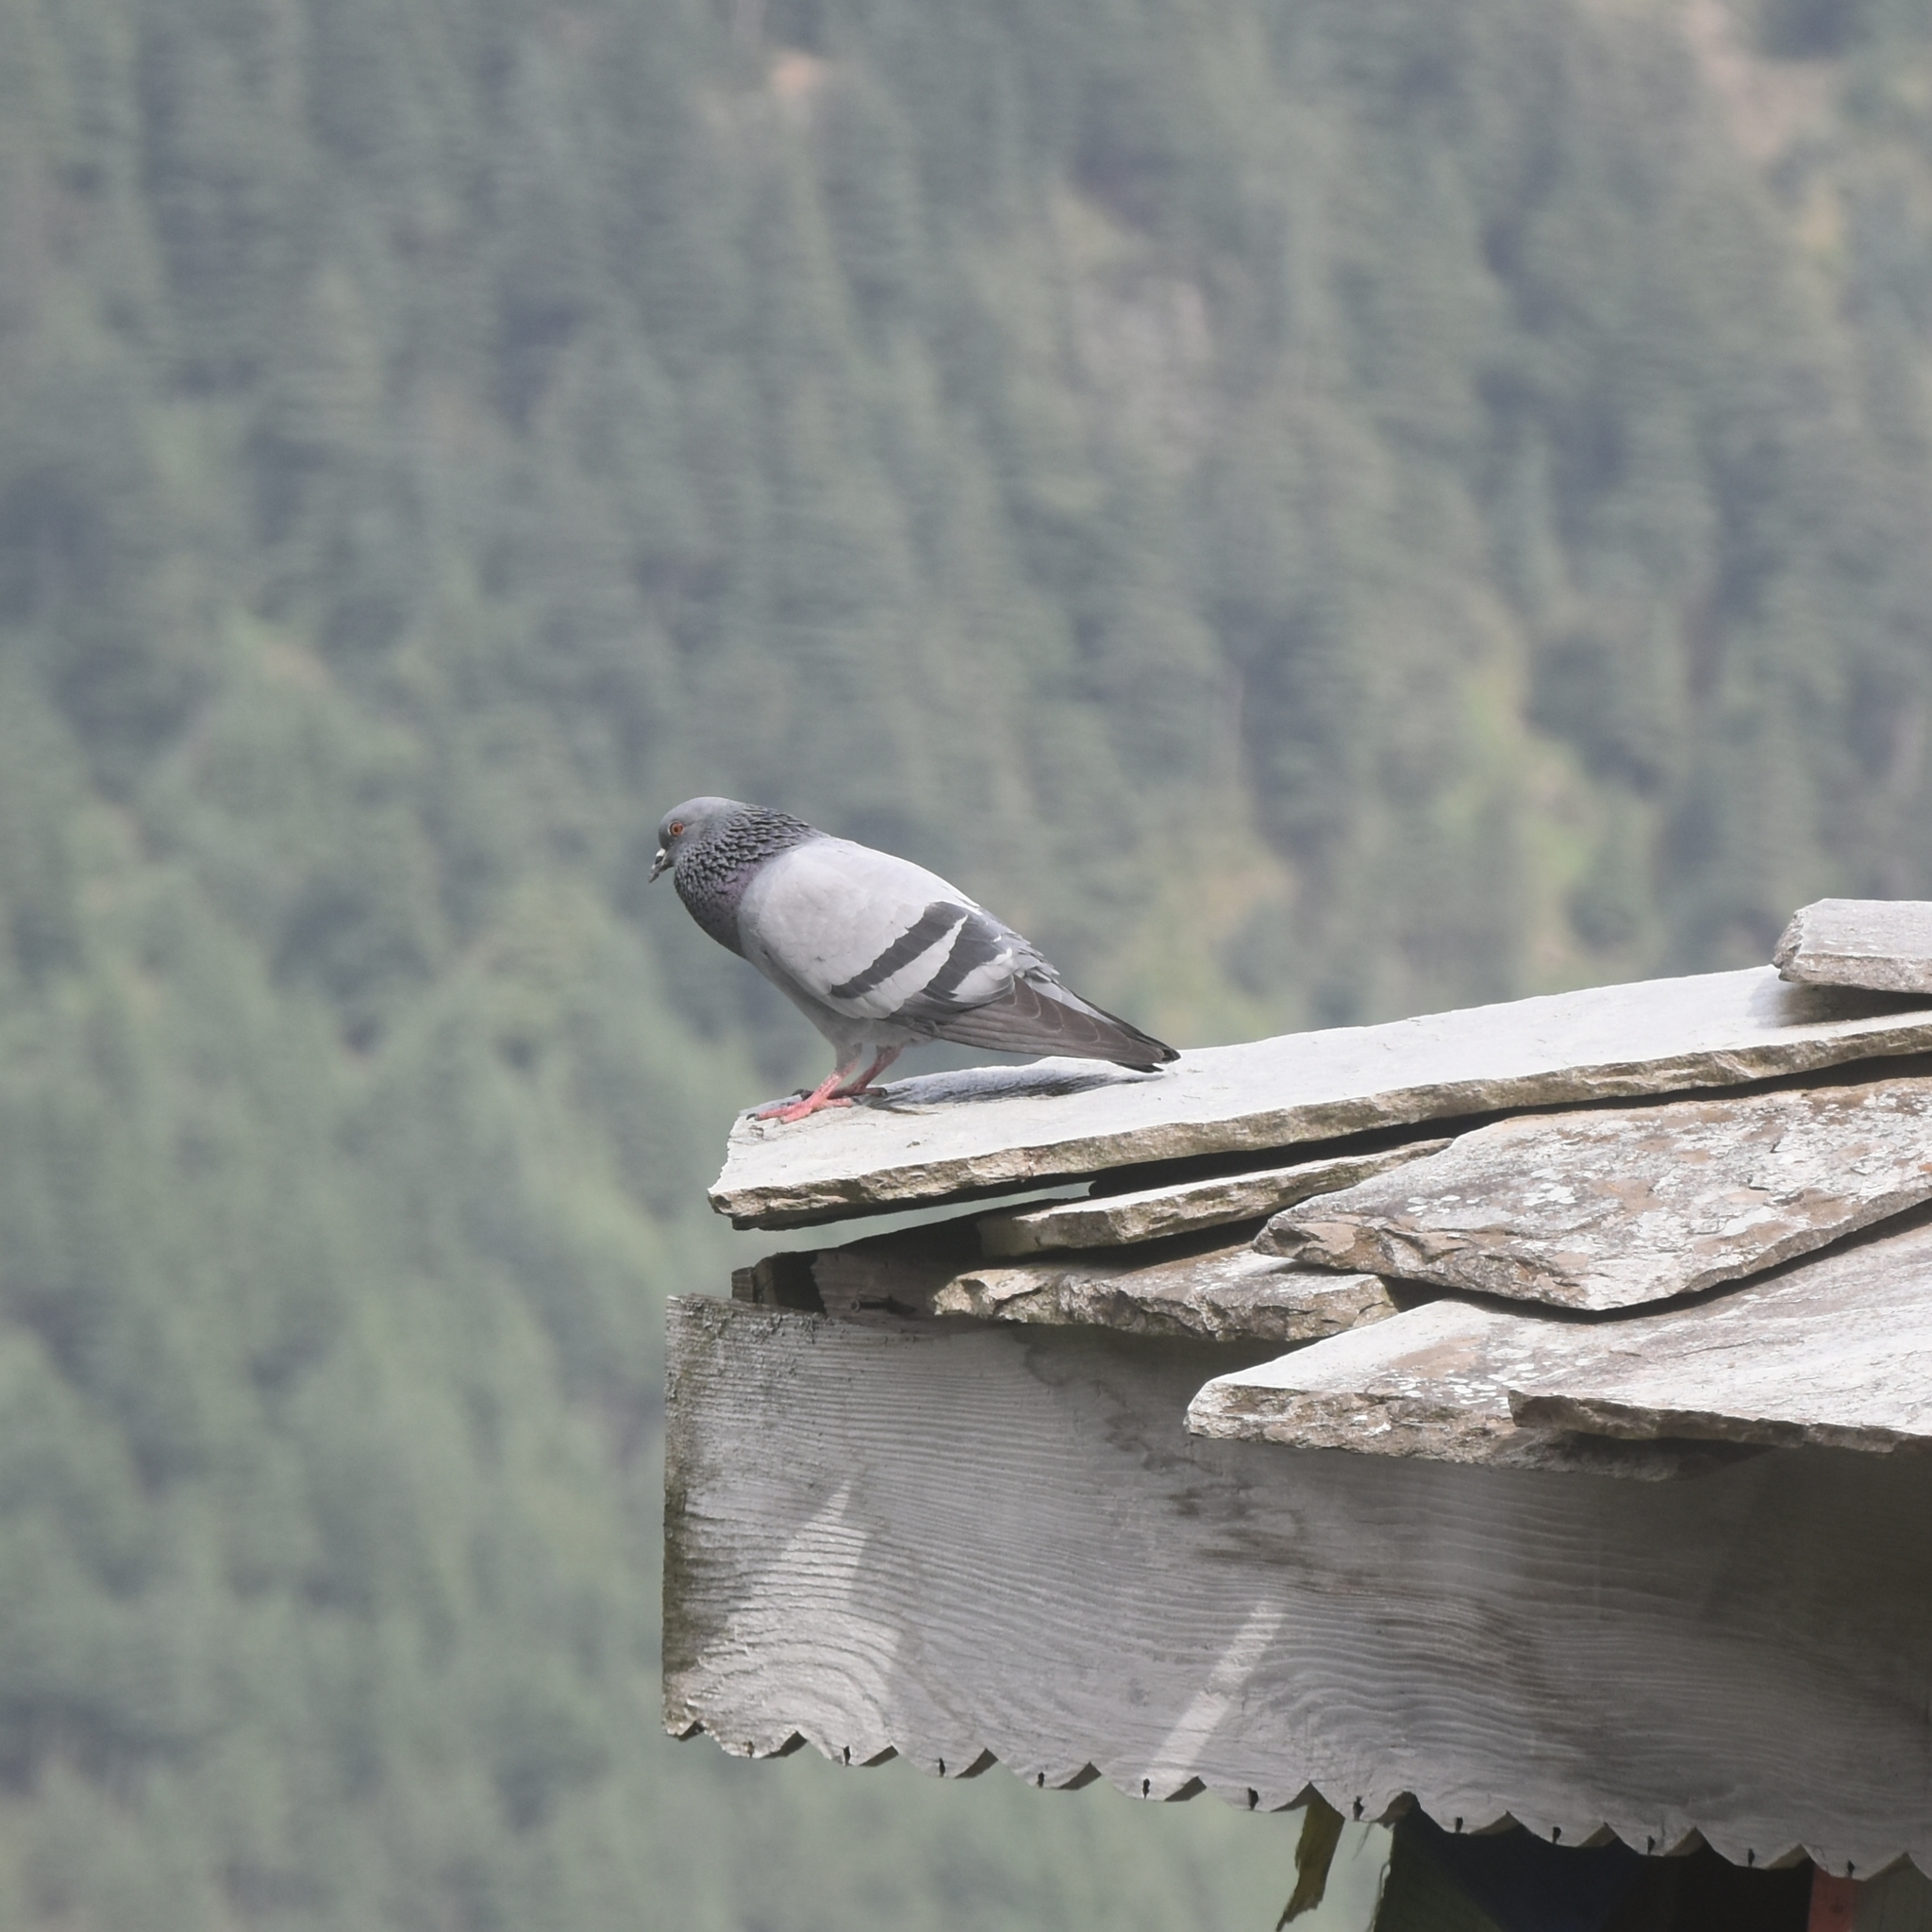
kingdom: Animalia
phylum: Chordata
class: Aves
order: Columbiformes
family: Columbidae
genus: Columba
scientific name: Columba livia
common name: Rock pigeon
